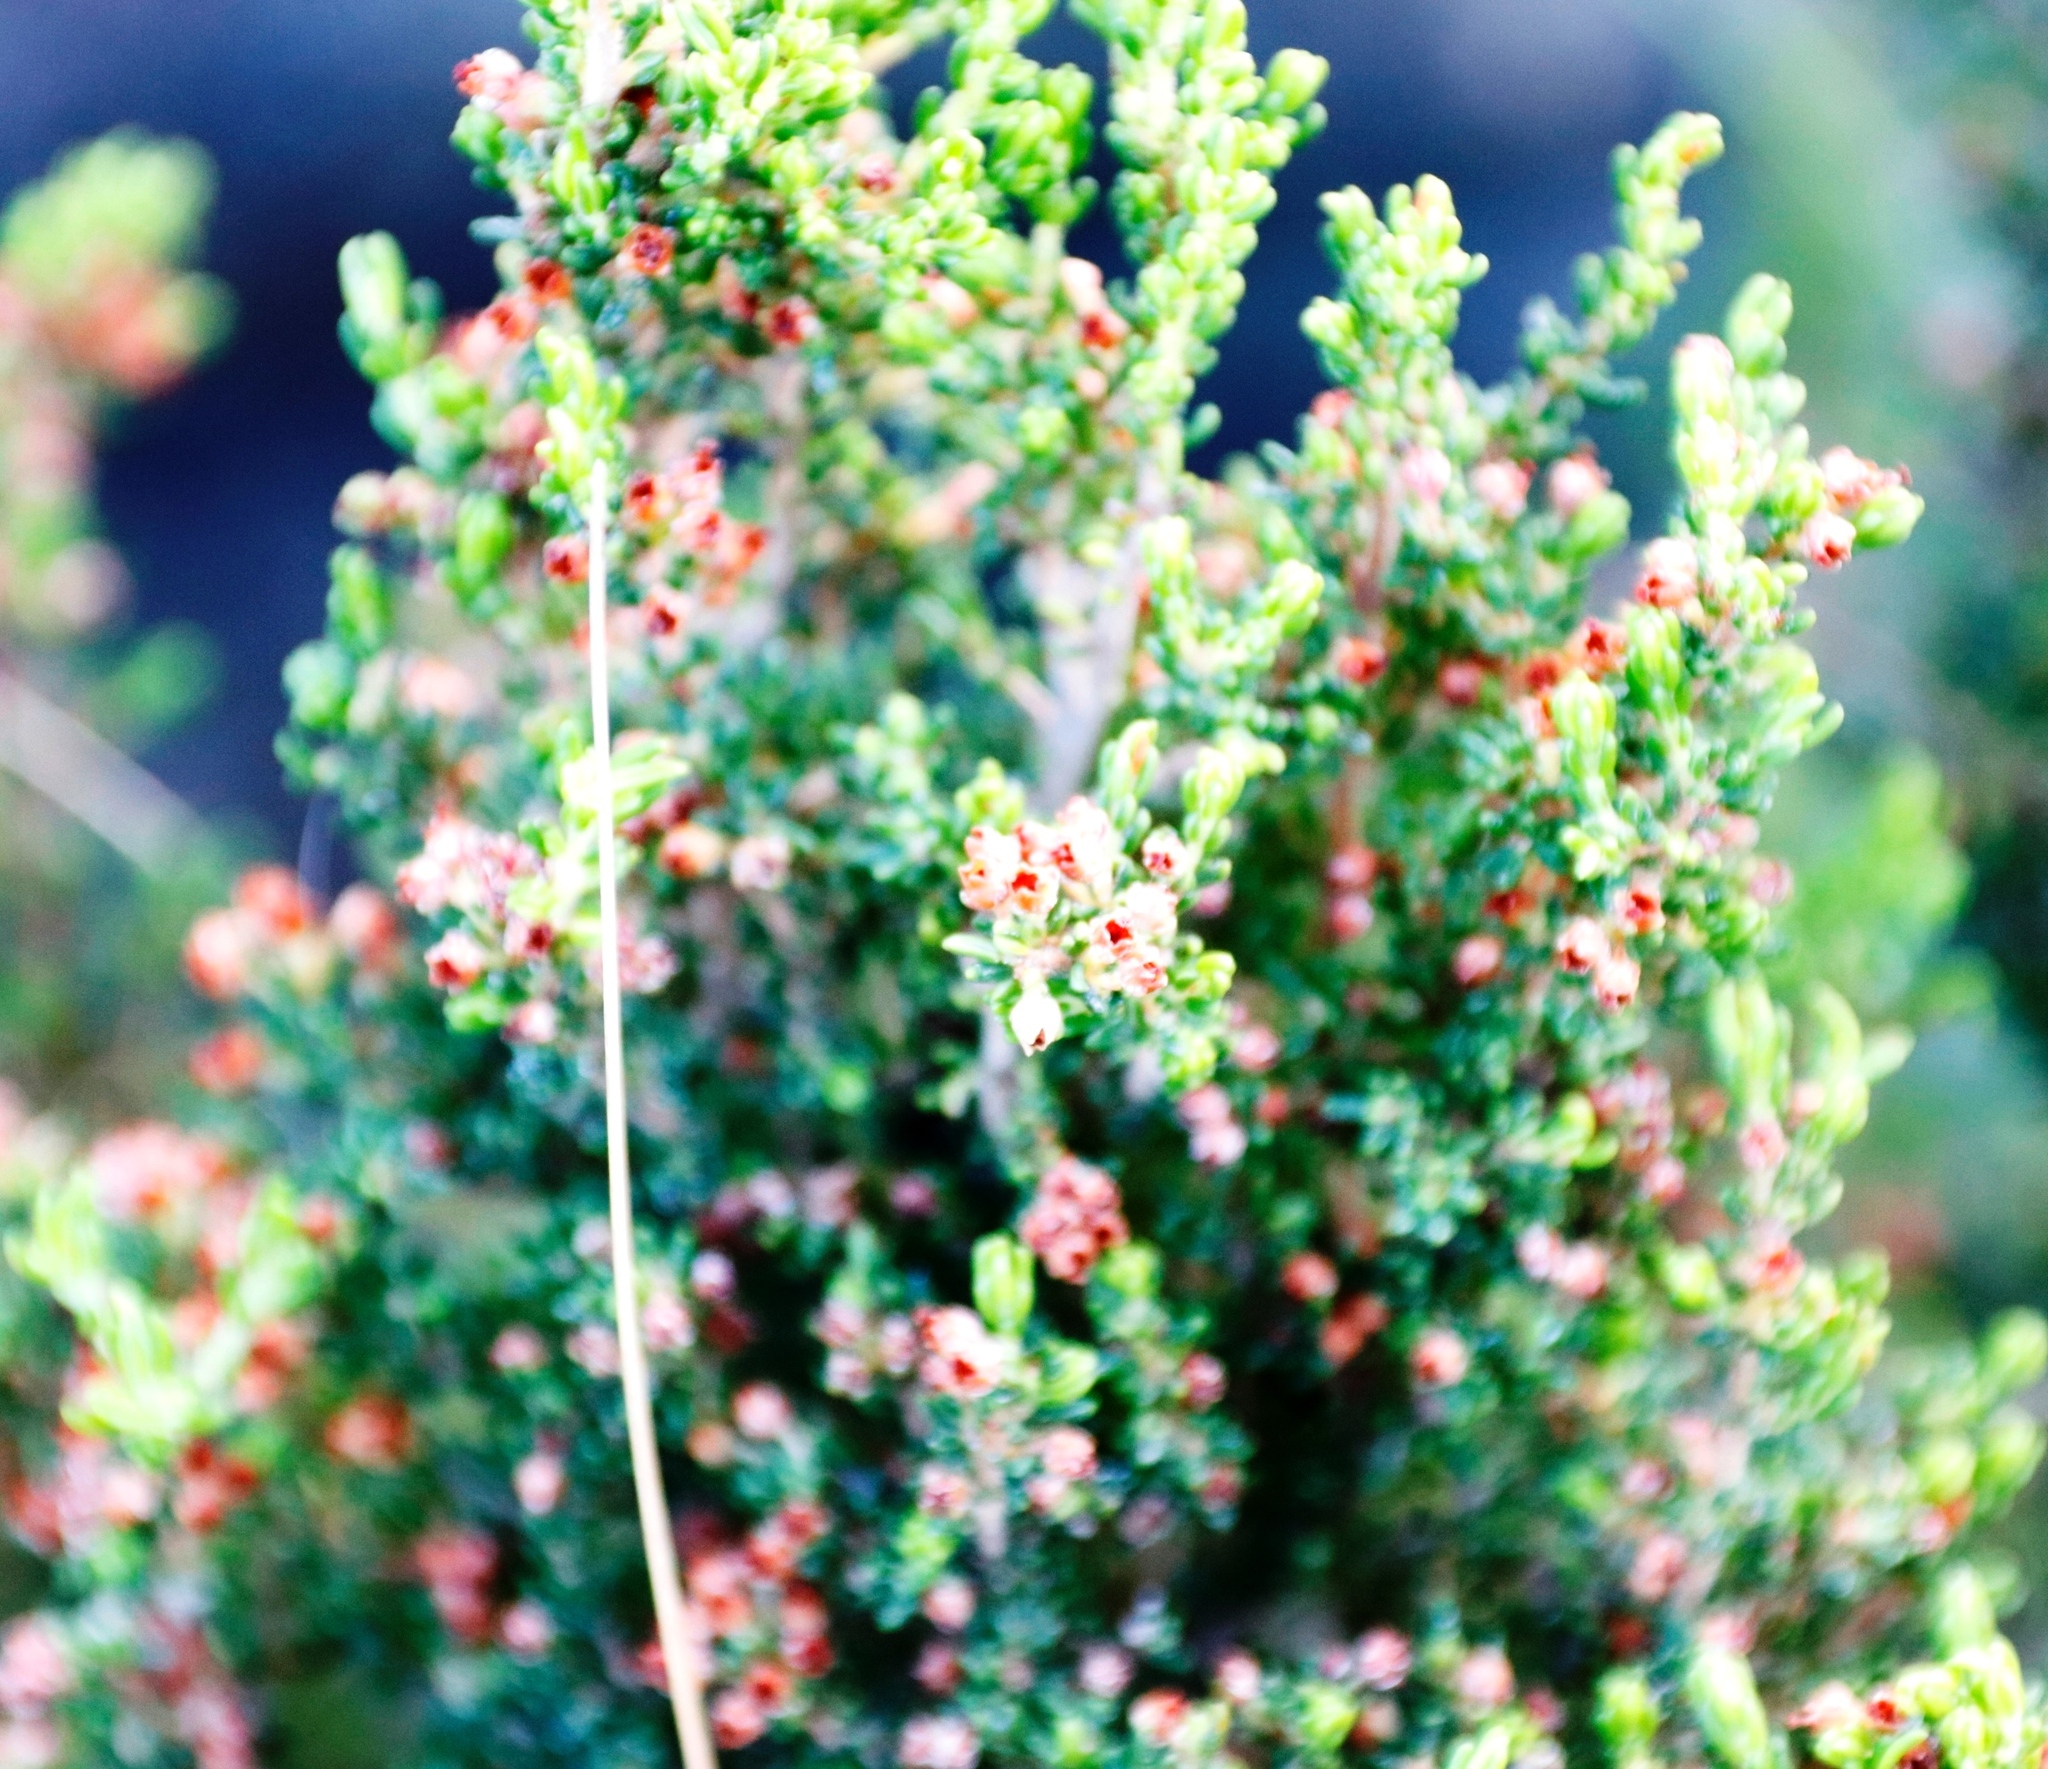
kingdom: Plantae
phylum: Tracheophyta
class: Magnoliopsida
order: Ericales
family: Ericaceae
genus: Erica
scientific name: Erica hispidula
